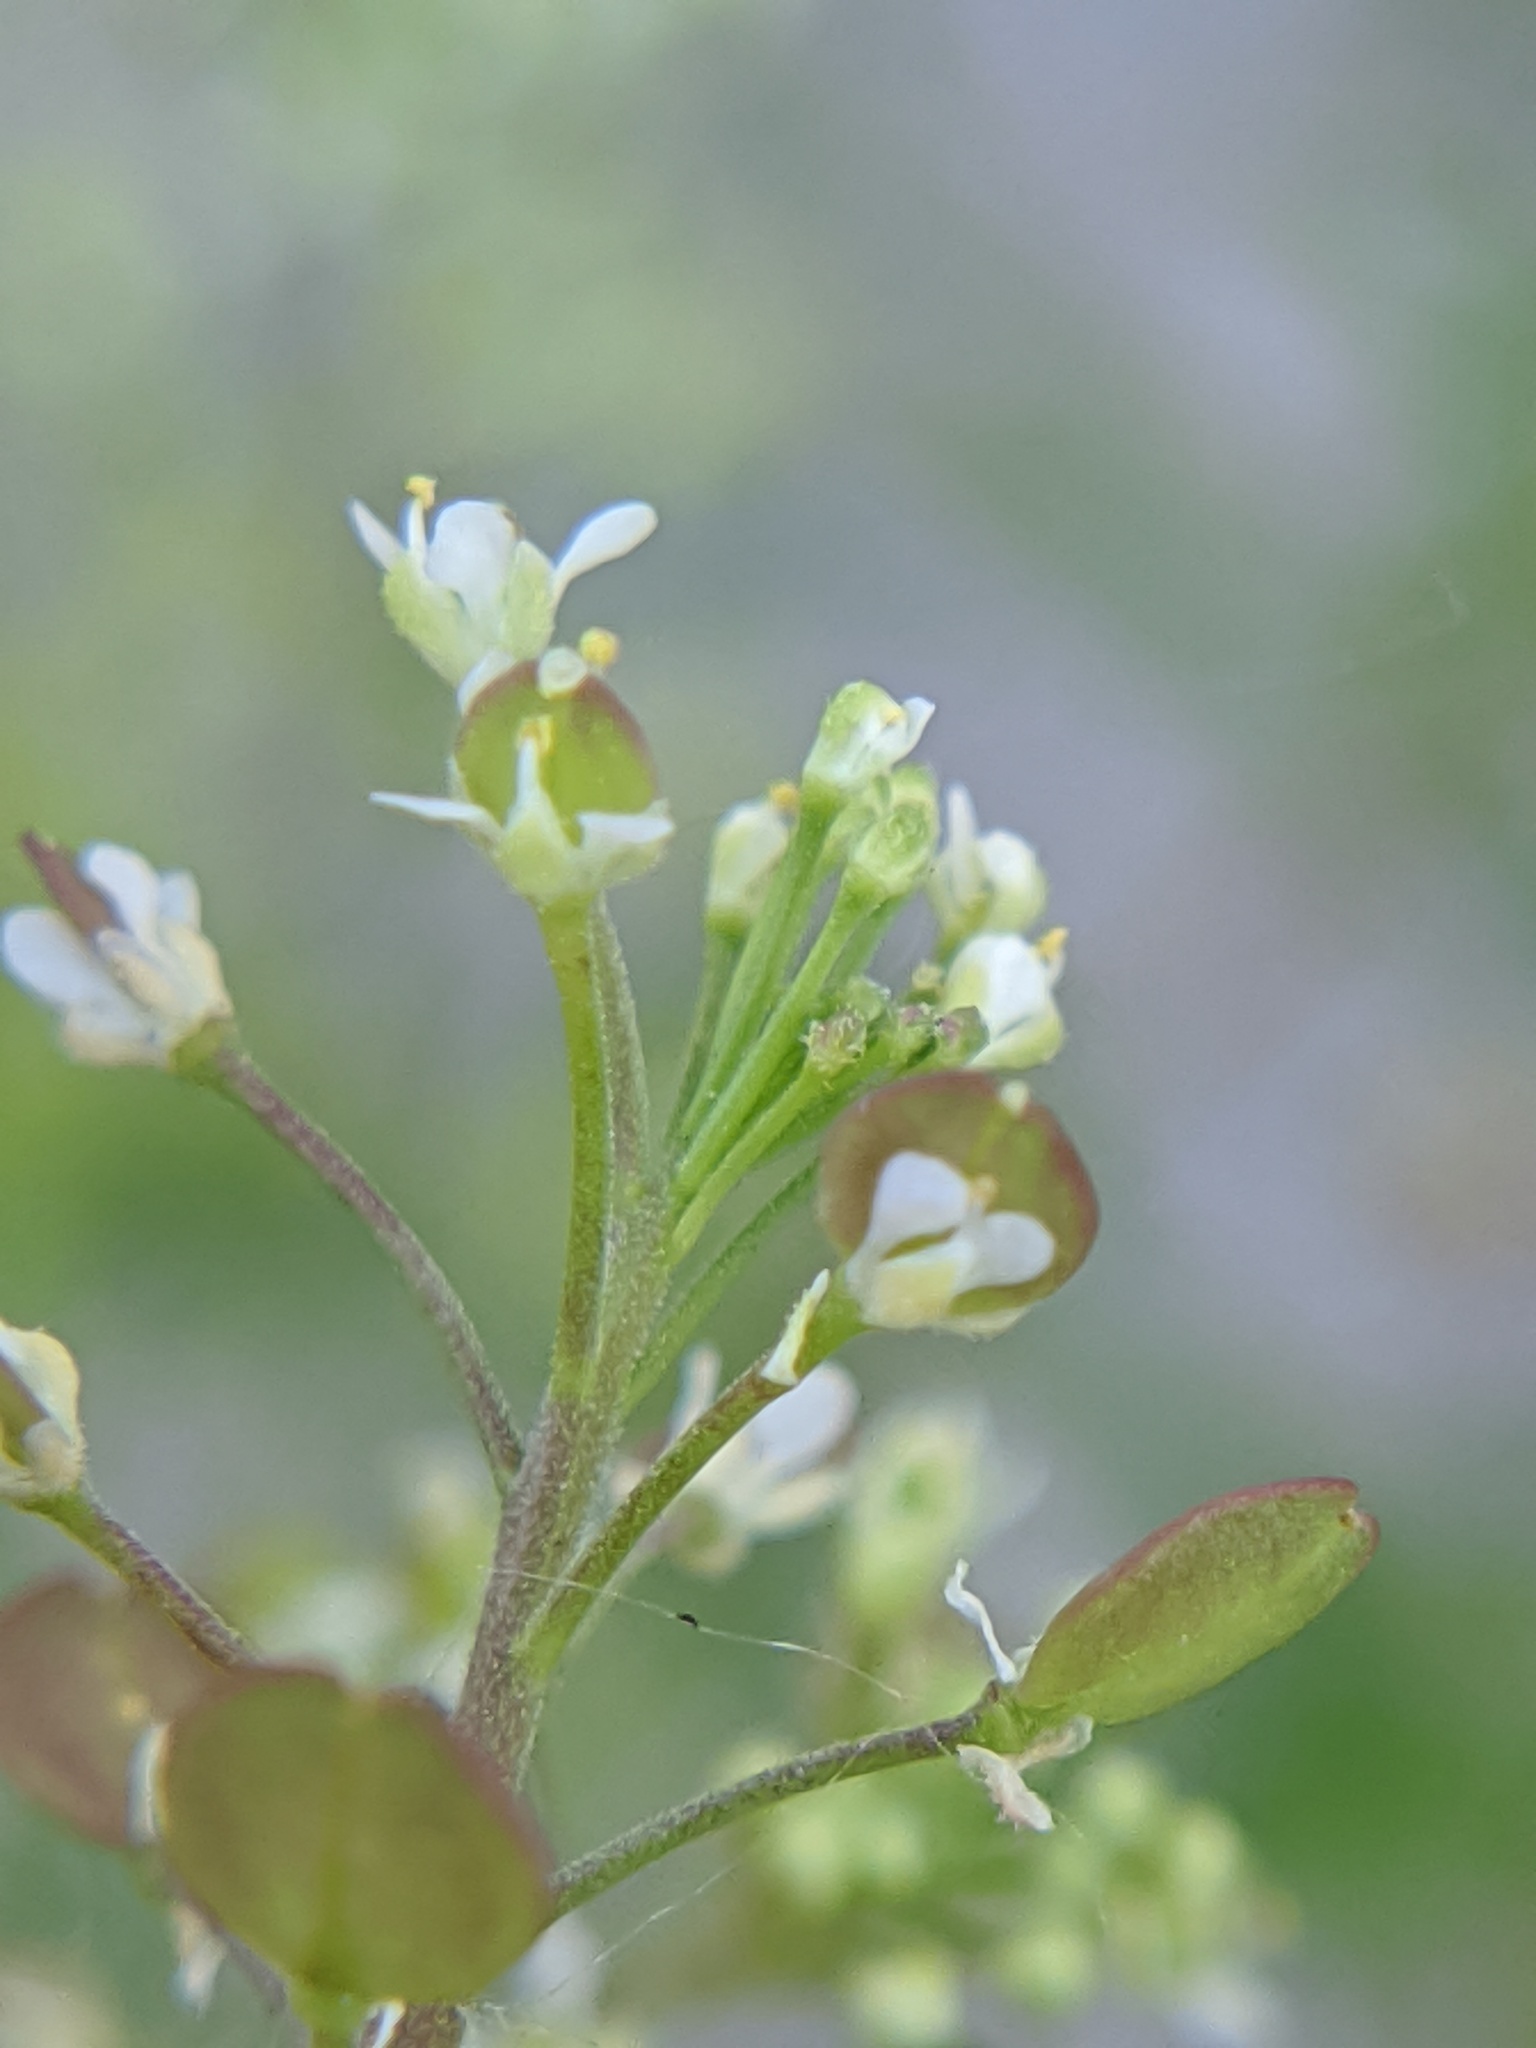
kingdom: Plantae
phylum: Tracheophyta
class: Magnoliopsida
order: Brassicales
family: Brassicaceae
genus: Lepidium
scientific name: Lepidium virginicum
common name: Least pepperwort
